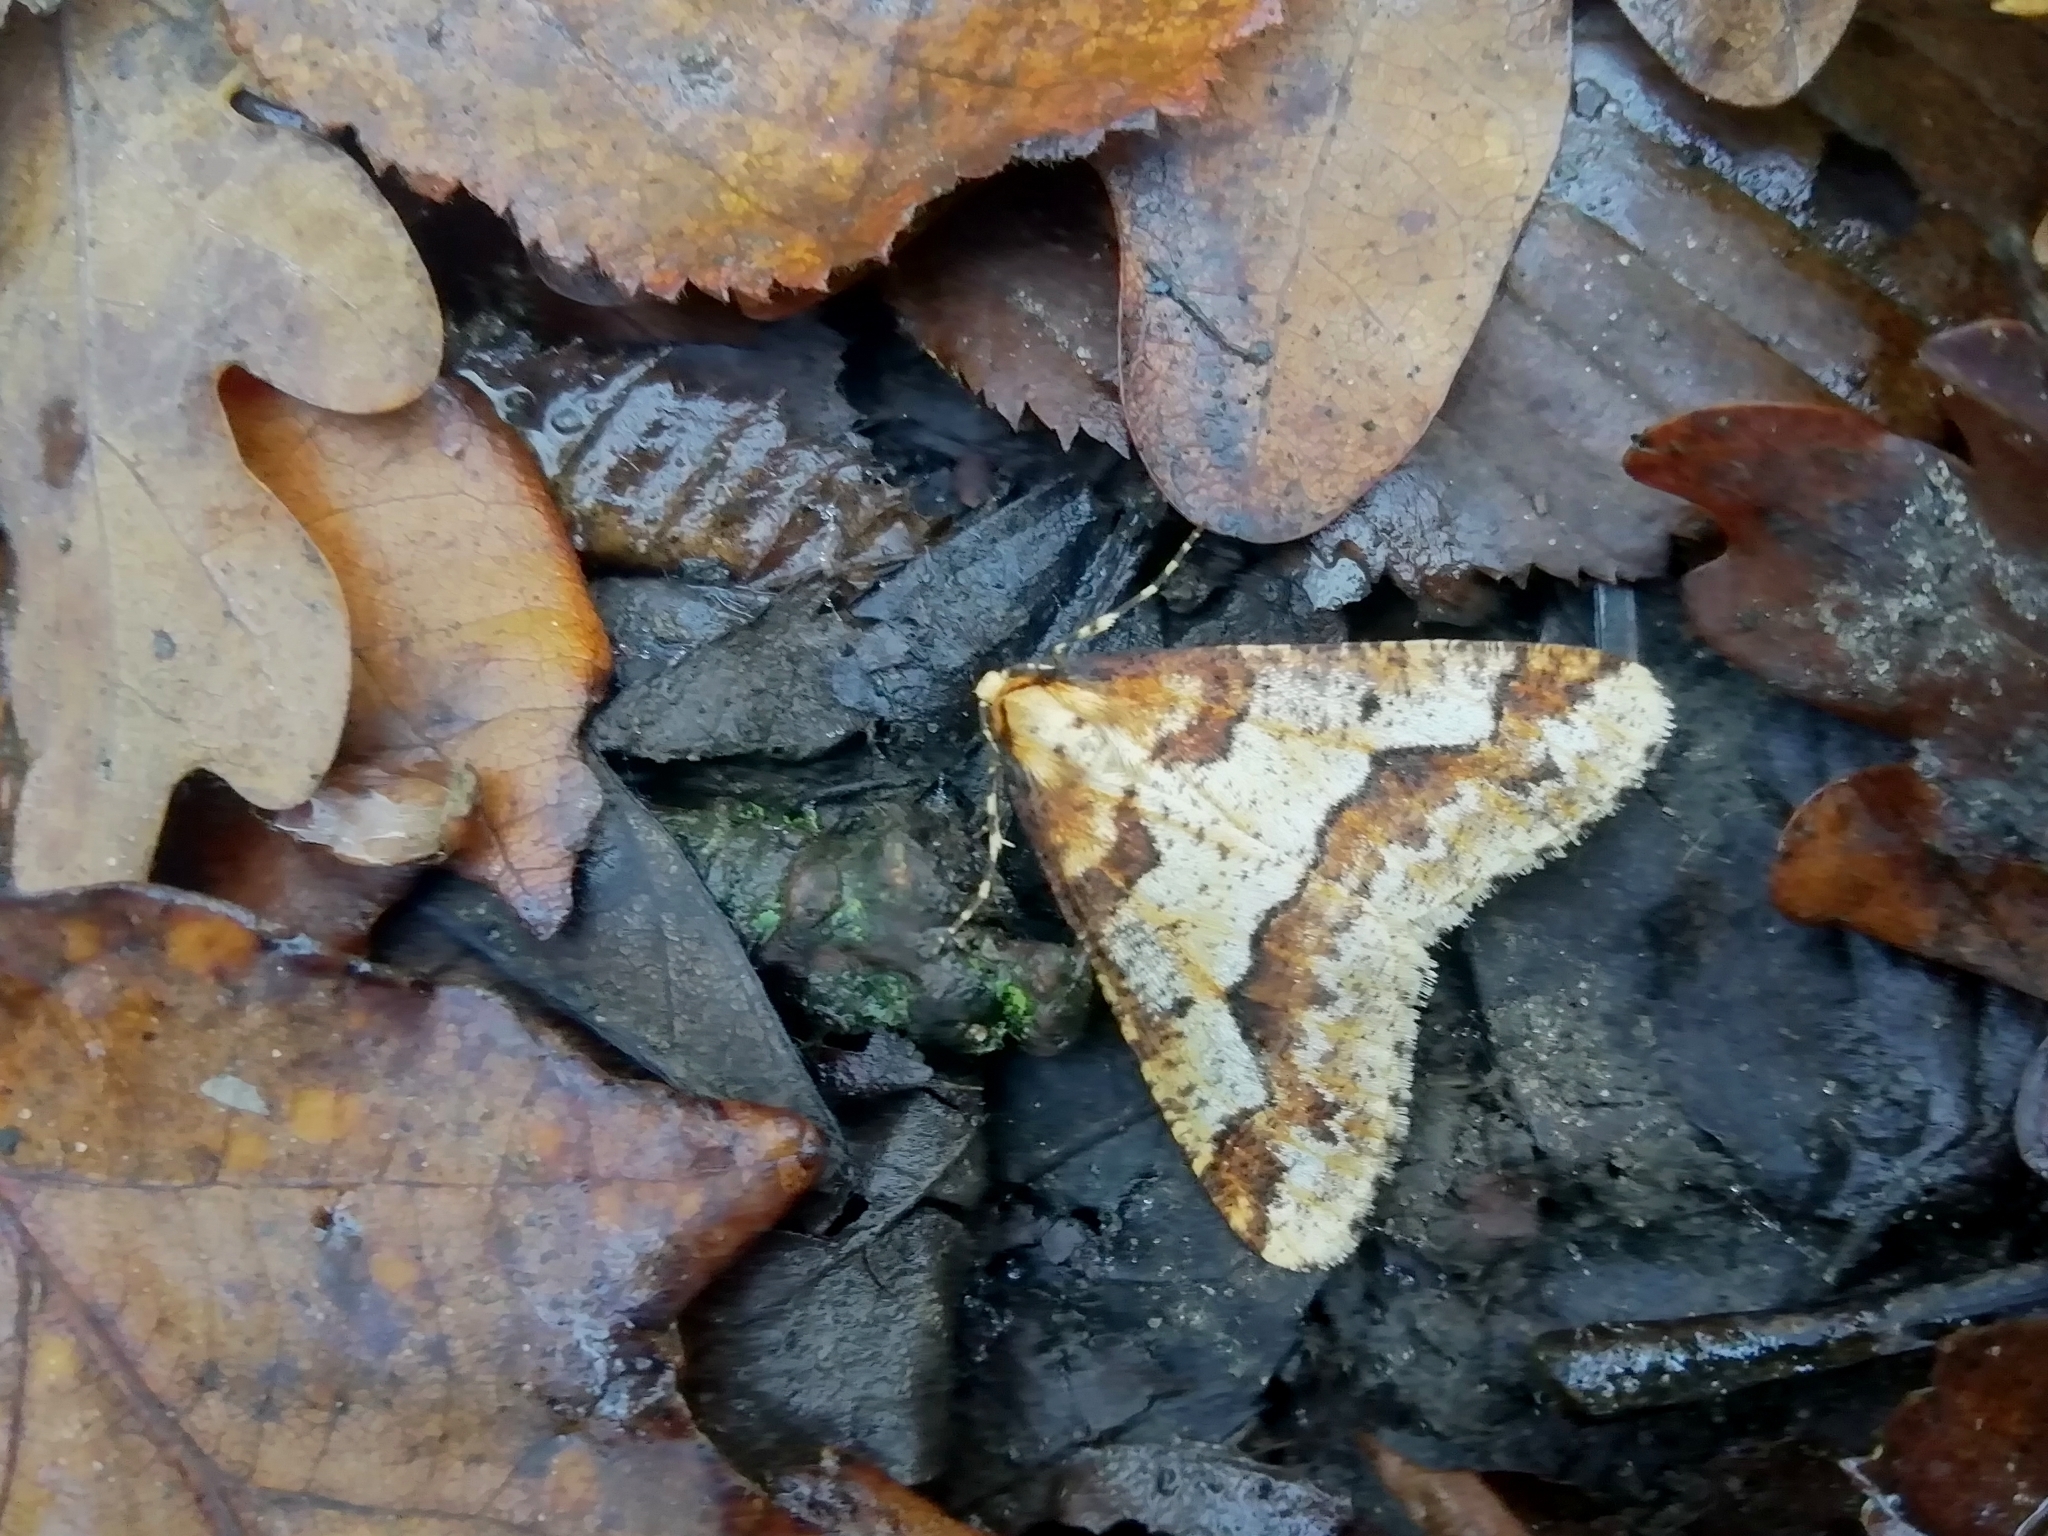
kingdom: Animalia
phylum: Arthropoda
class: Insecta
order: Lepidoptera
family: Geometridae
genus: Erannis
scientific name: Erannis defoliaria
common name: Mottled umber
